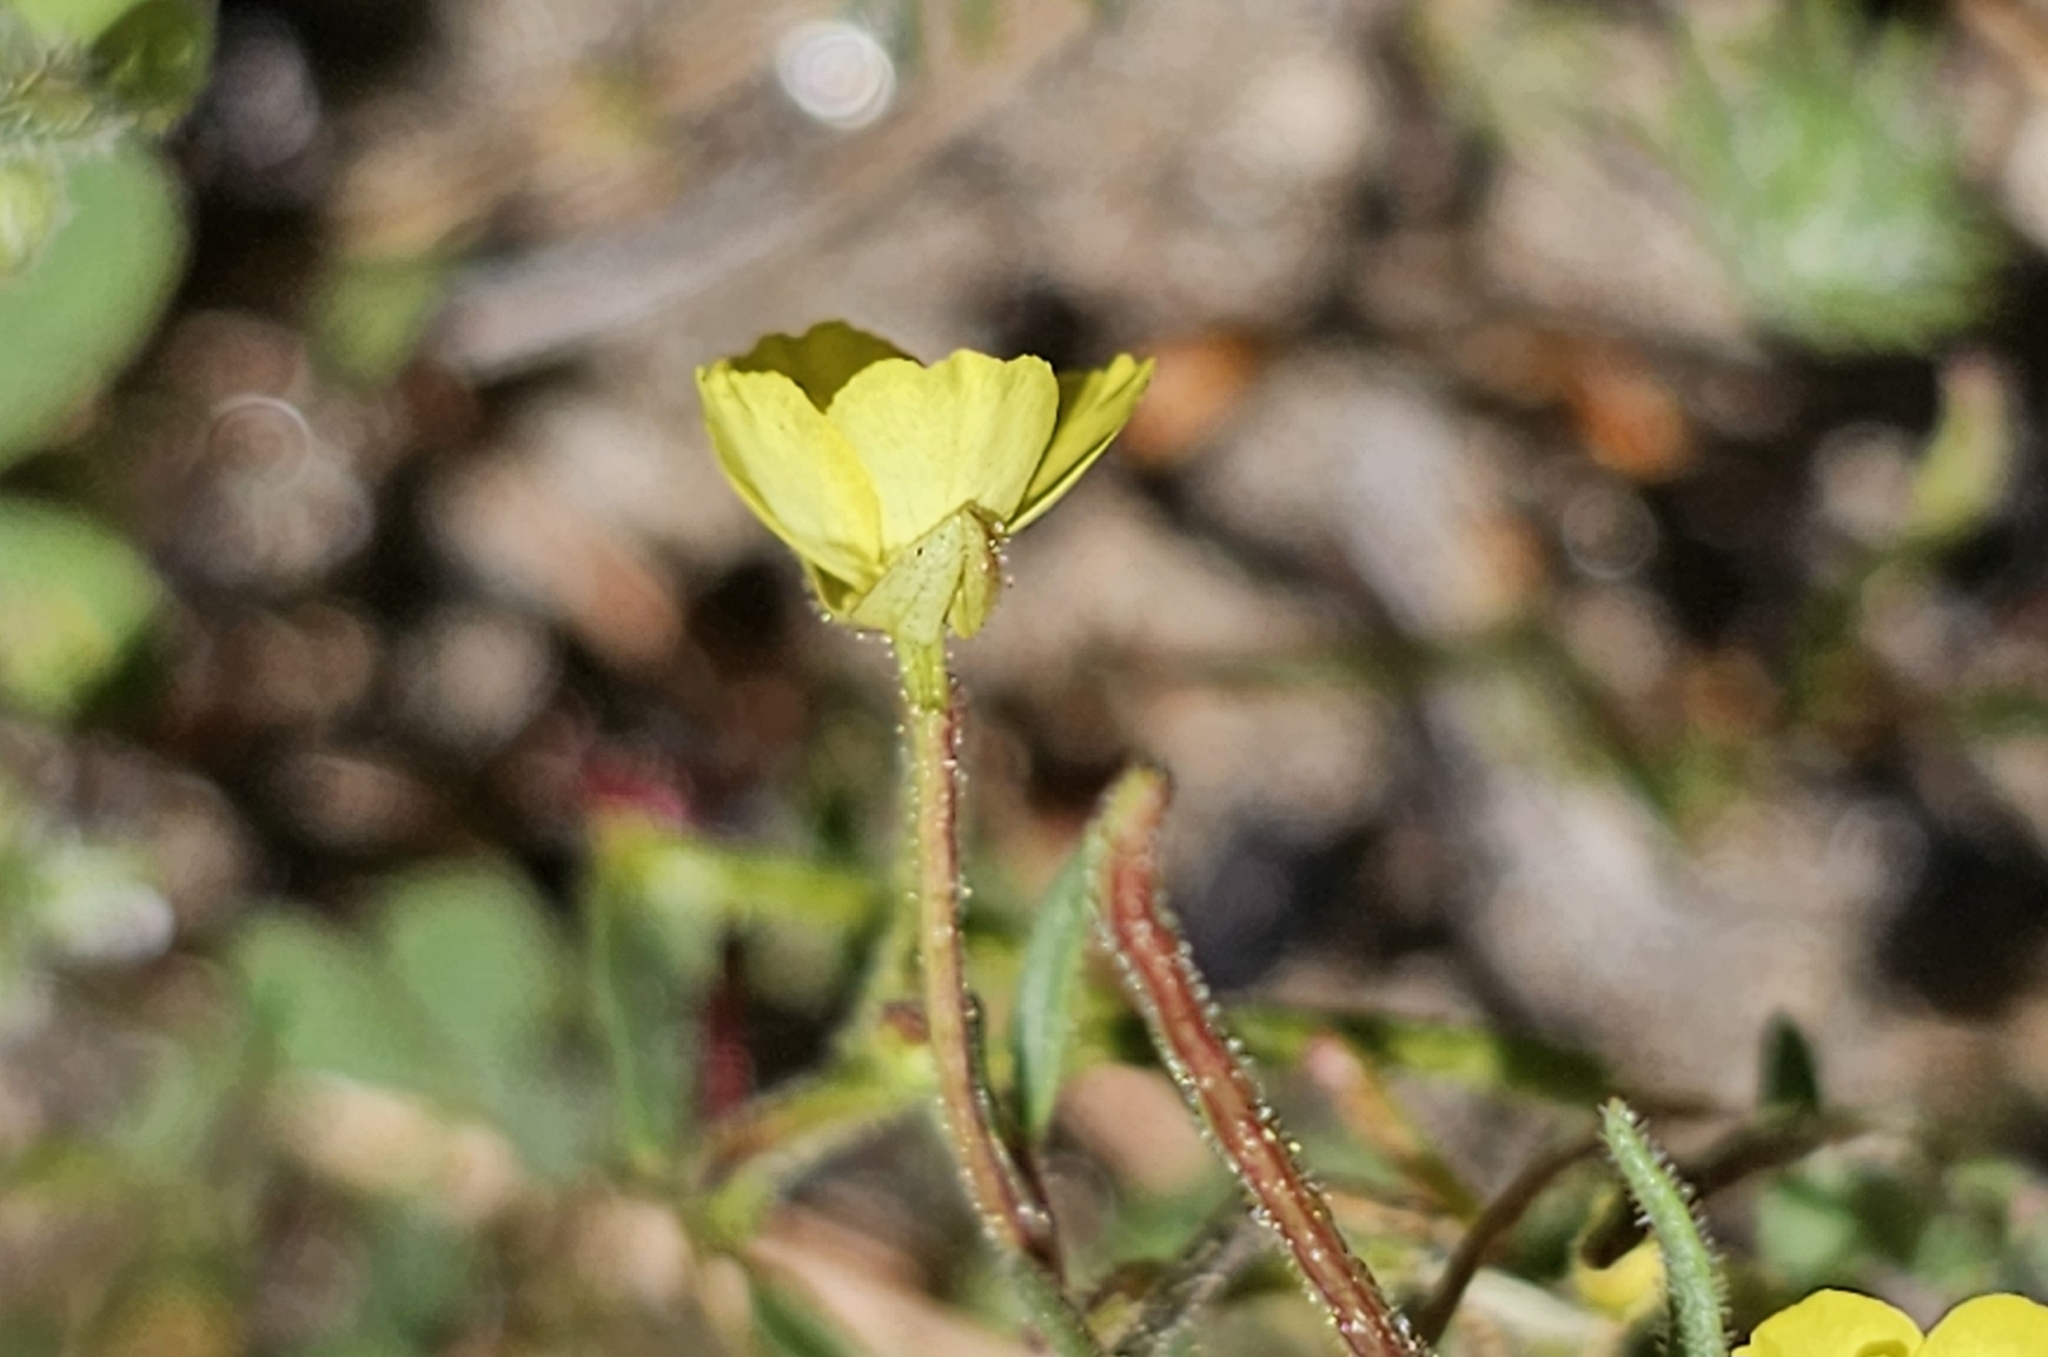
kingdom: Plantae
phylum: Tracheophyta
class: Magnoliopsida
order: Myrtales
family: Onagraceae
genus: Camissonia
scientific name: Camissonia sierrae
